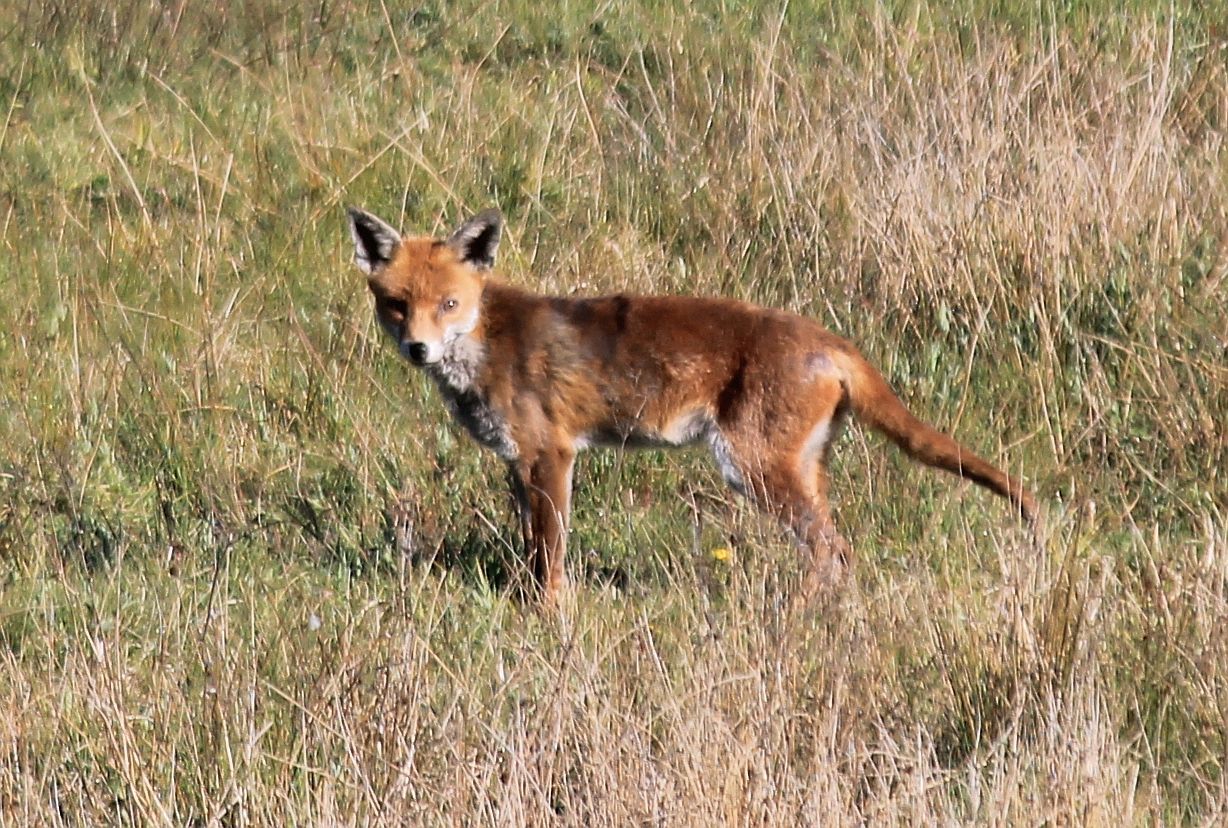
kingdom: Animalia
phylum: Chordata
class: Mammalia
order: Carnivora
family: Canidae
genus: Vulpes
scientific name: Vulpes vulpes
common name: Red fox
